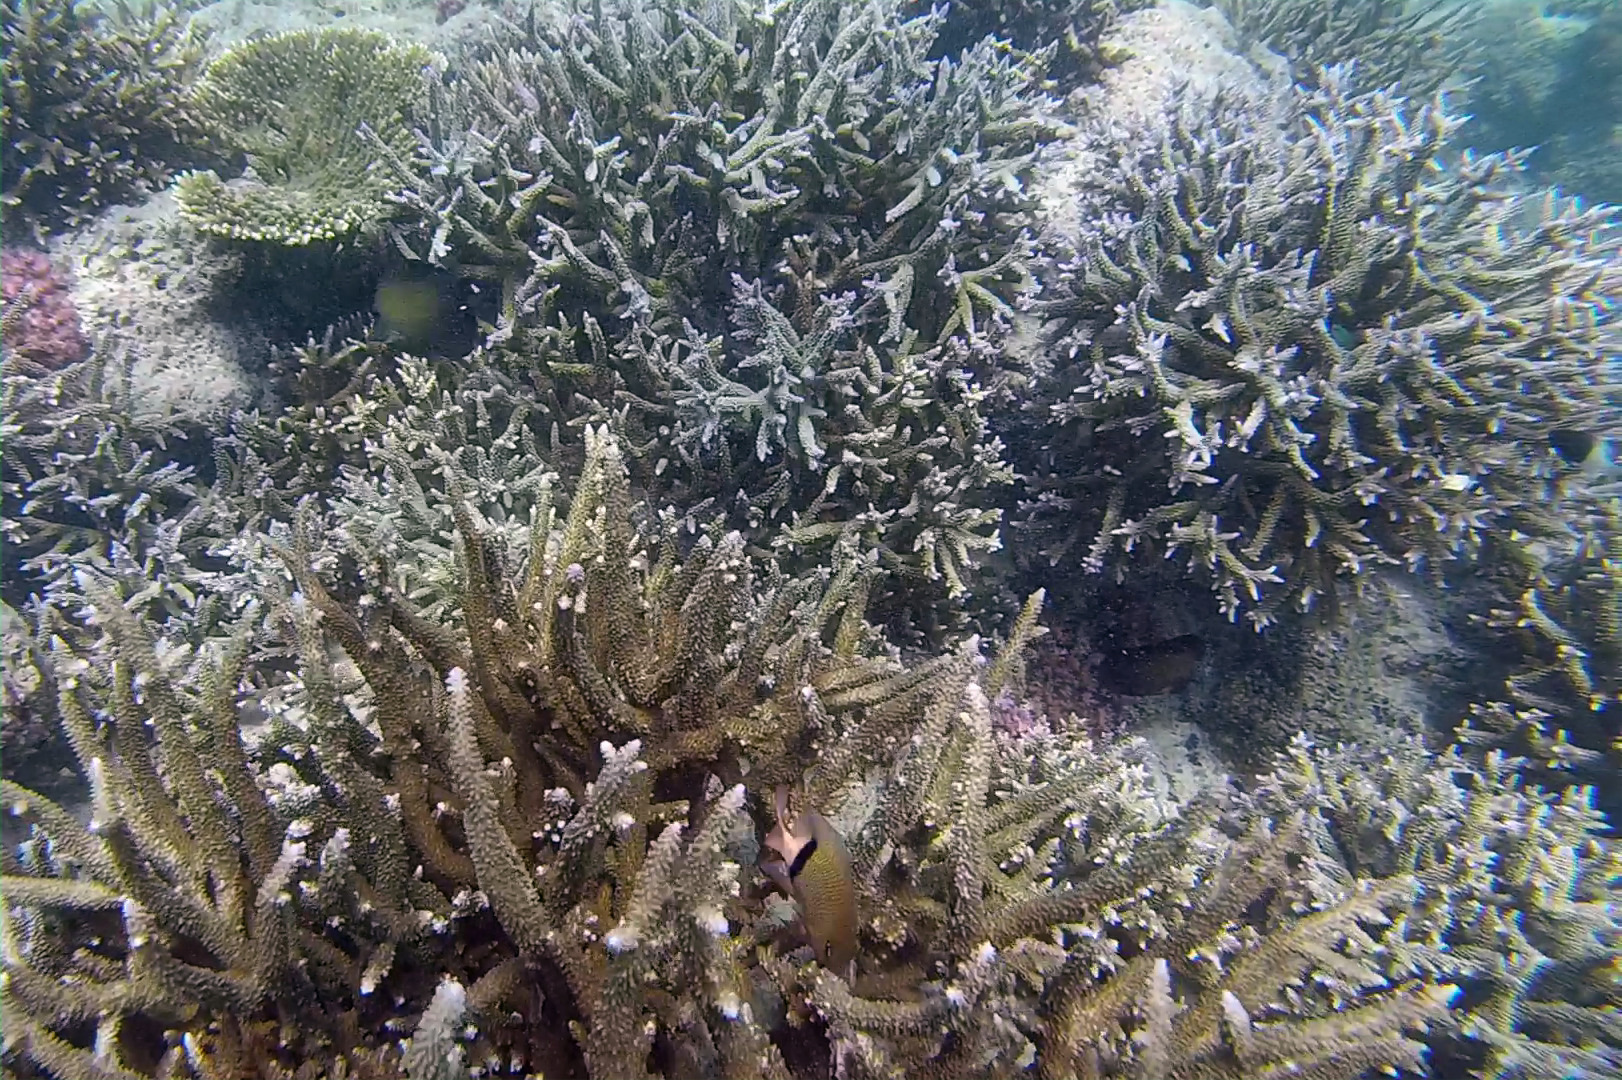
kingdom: Animalia
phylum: Chordata
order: Perciformes
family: Acanthuridae
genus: Zebrasoma
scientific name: Zebrasoma scopas
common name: Twotone tang
